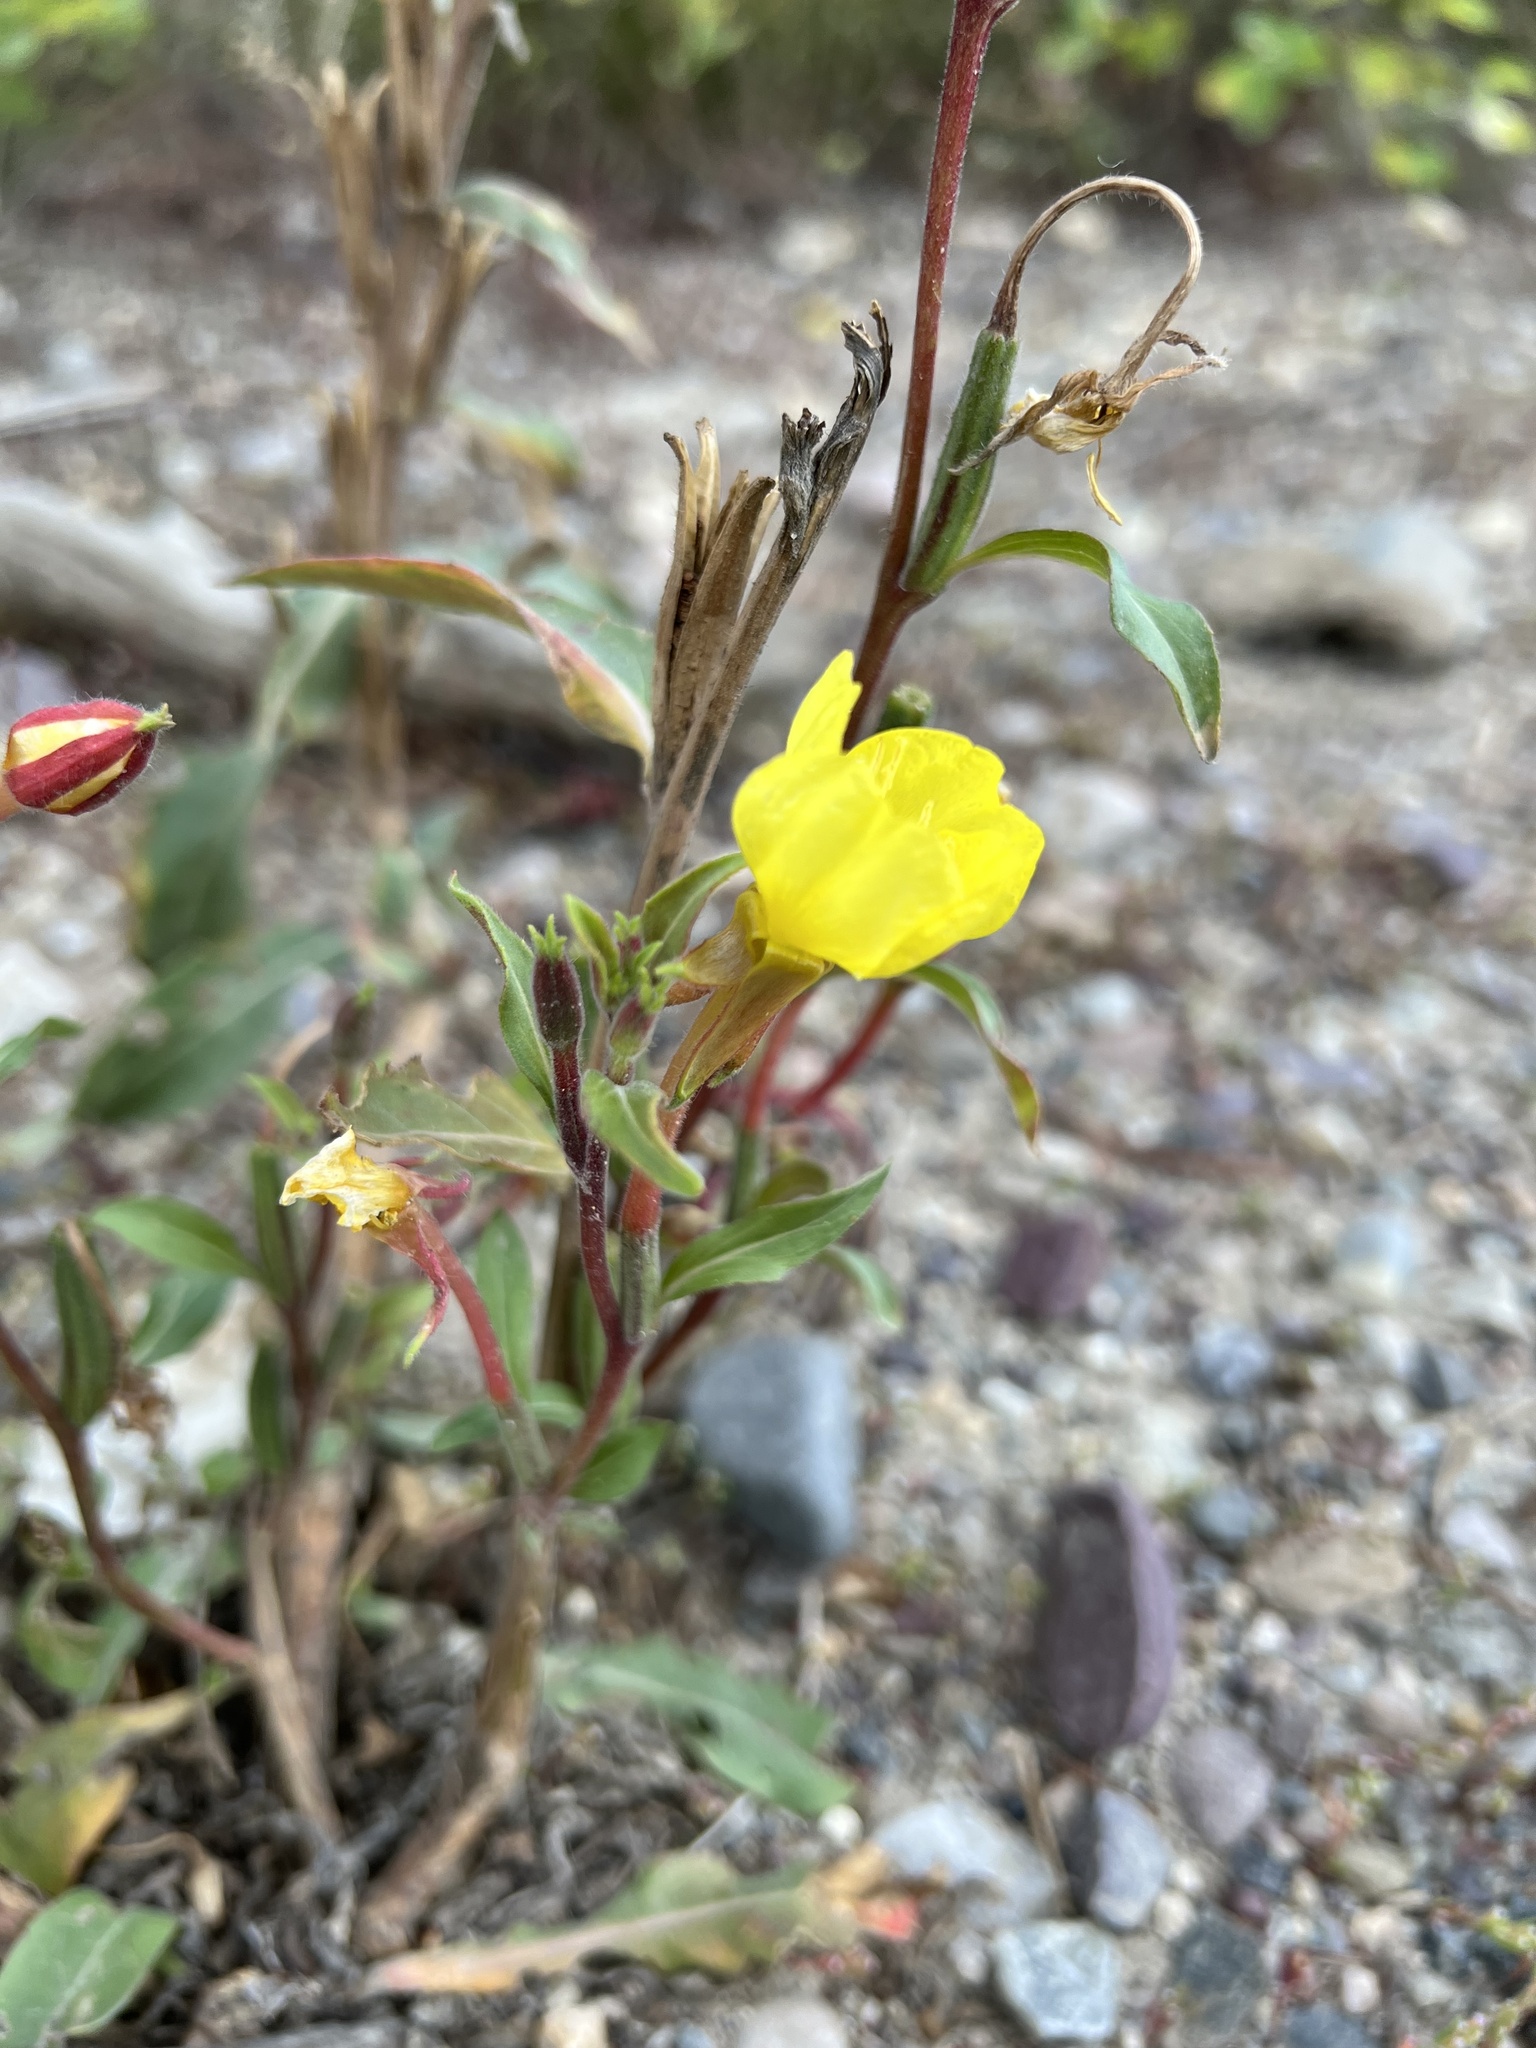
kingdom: Plantae
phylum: Tracheophyta
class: Magnoliopsida
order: Myrtales
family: Onagraceae
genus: Oenothera
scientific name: Oenothera biennis
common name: Common evening-primrose
